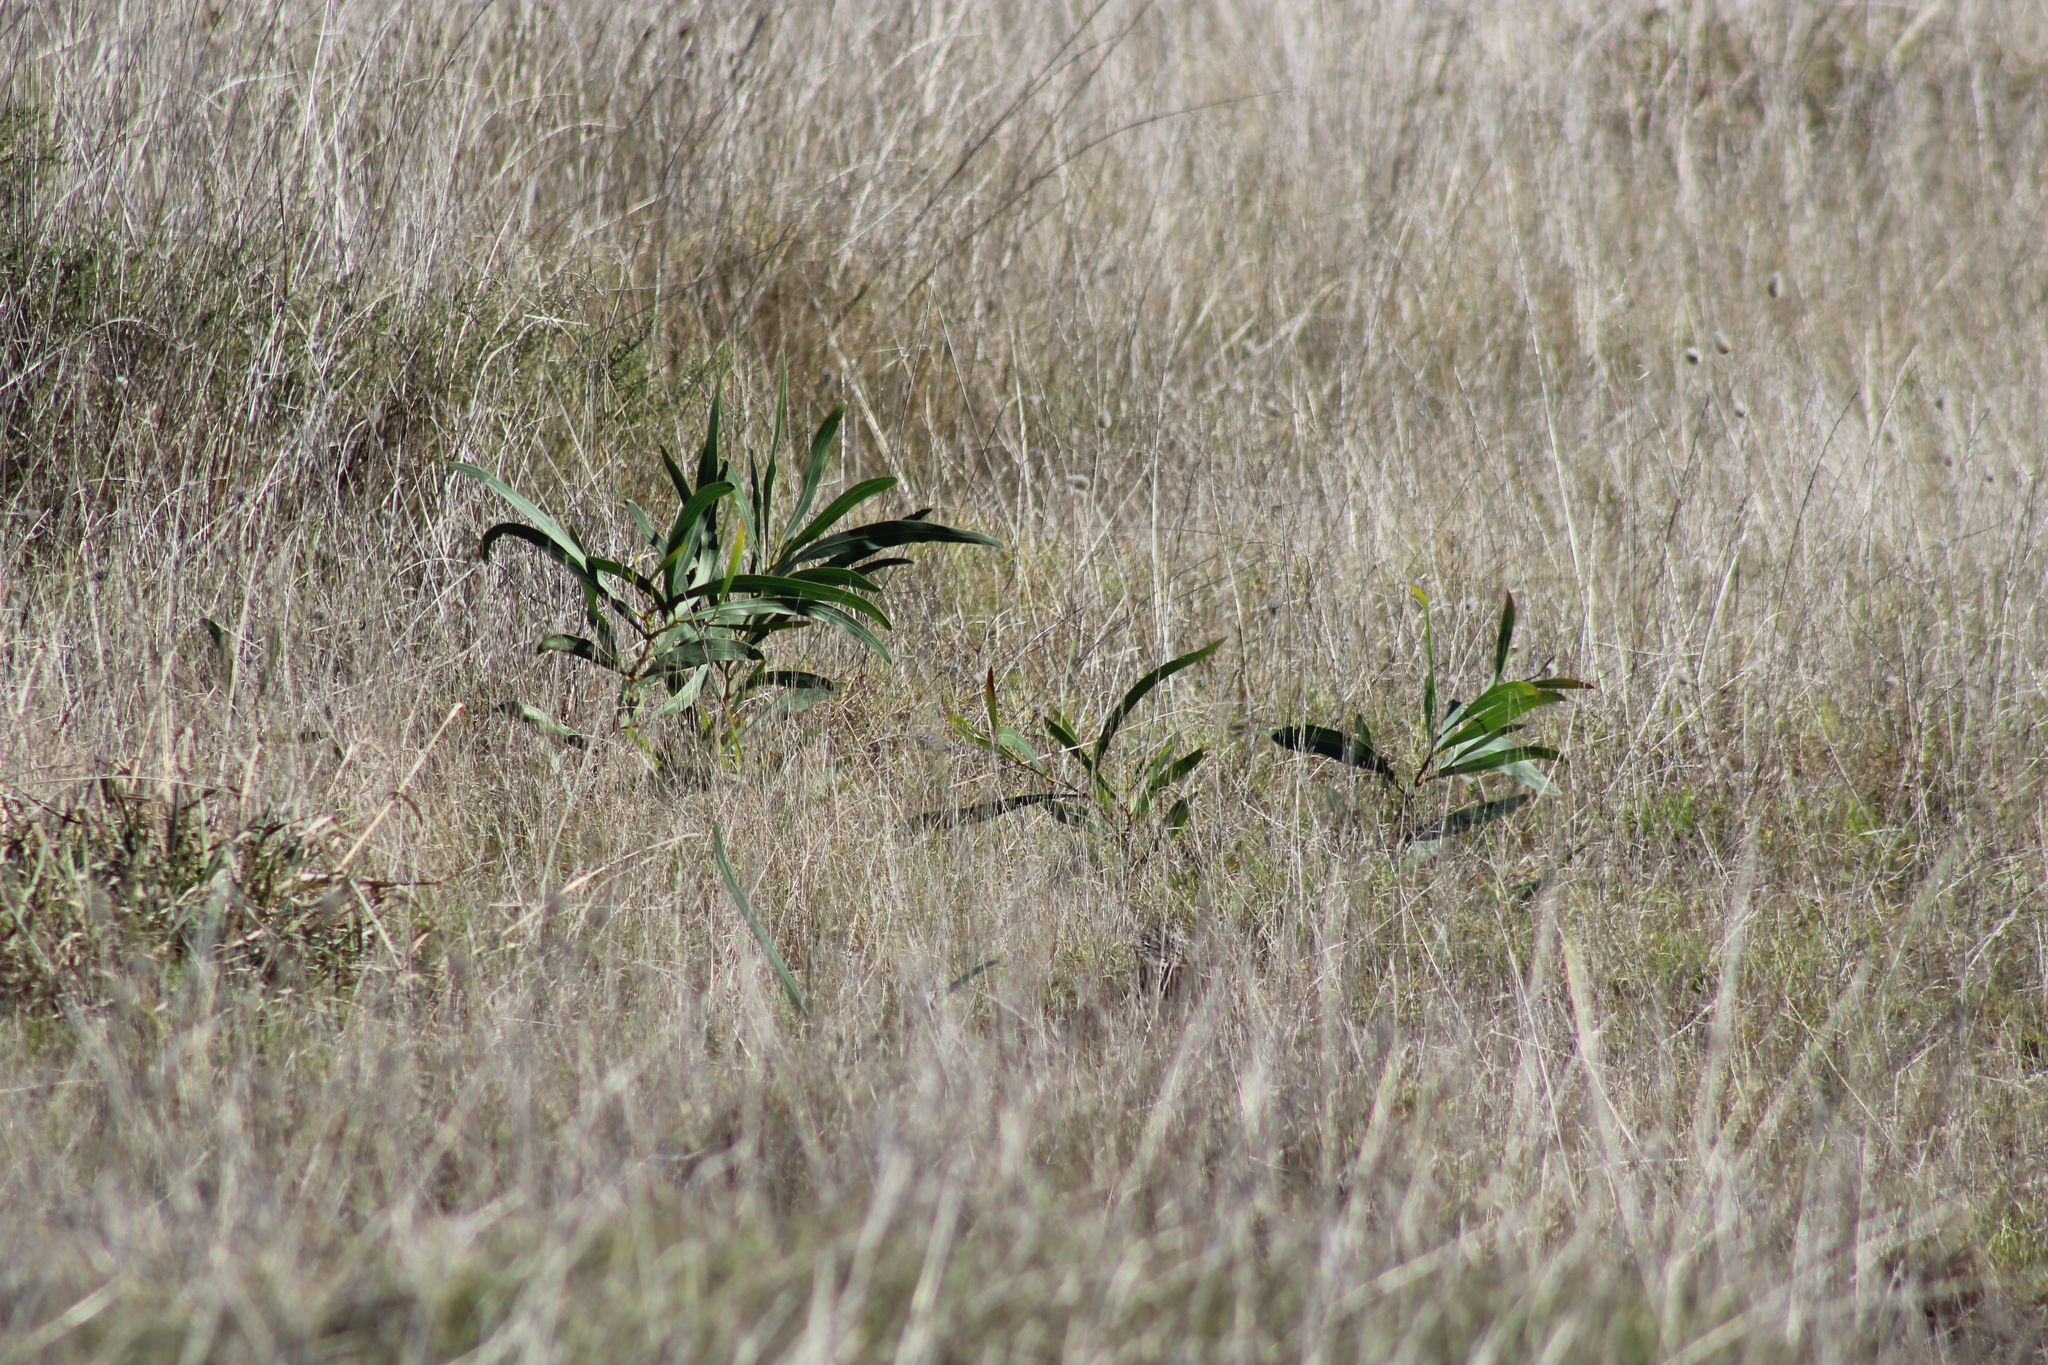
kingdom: Plantae
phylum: Tracheophyta
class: Magnoliopsida
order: Fabales
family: Fabaceae
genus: Acacia
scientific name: Acacia saligna
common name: Orange wattle
